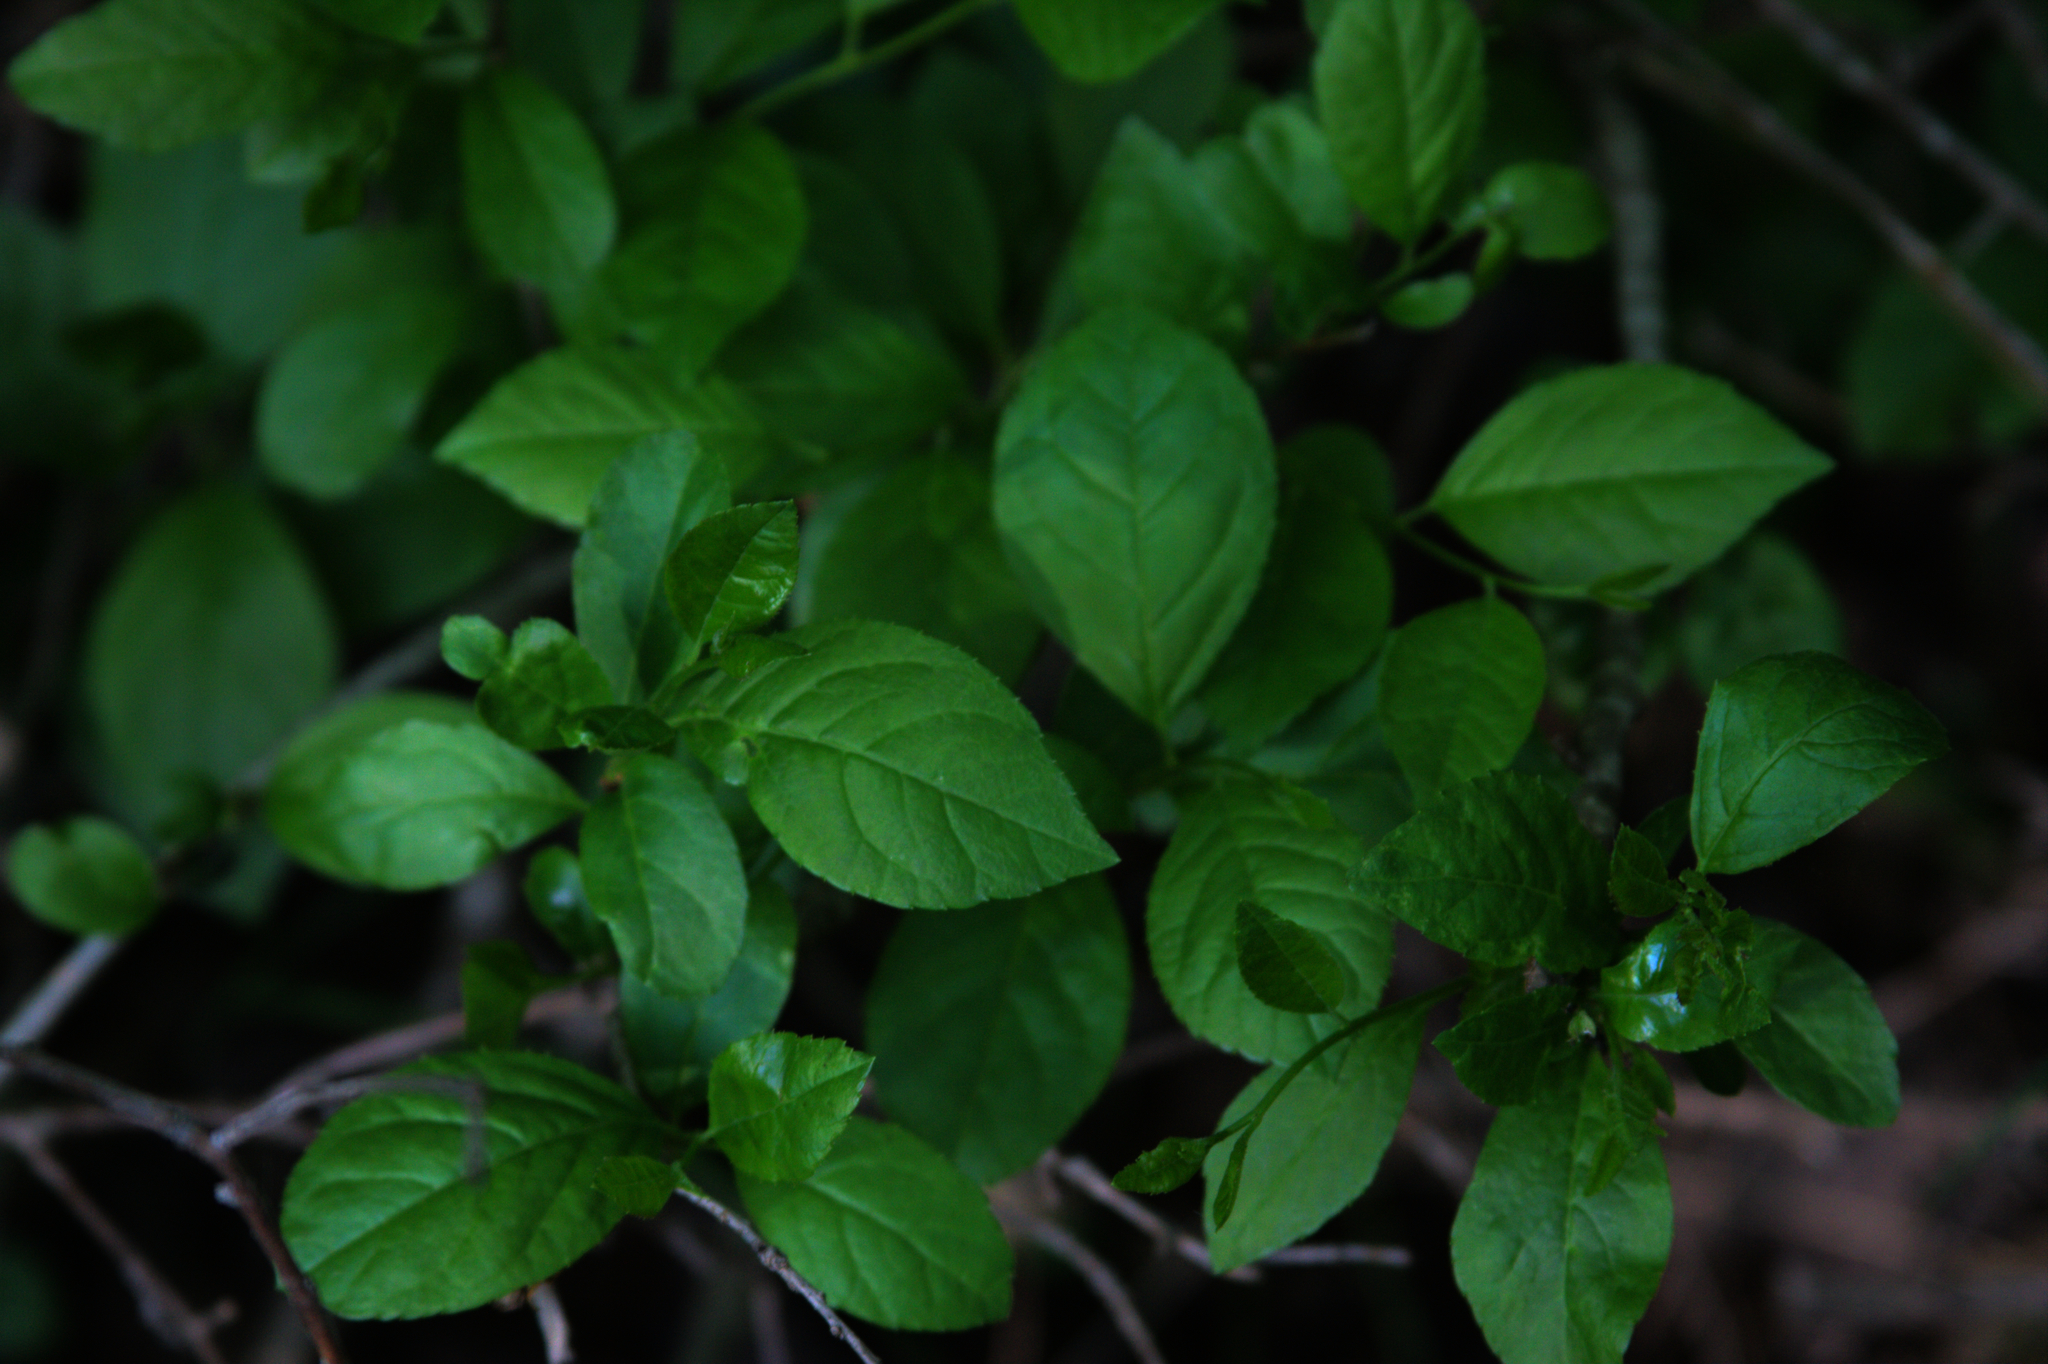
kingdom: Plantae
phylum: Tracheophyta
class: Magnoliopsida
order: Celastrales
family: Celastraceae
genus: Euonymus
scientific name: Euonymus europaeus
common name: Spindle
